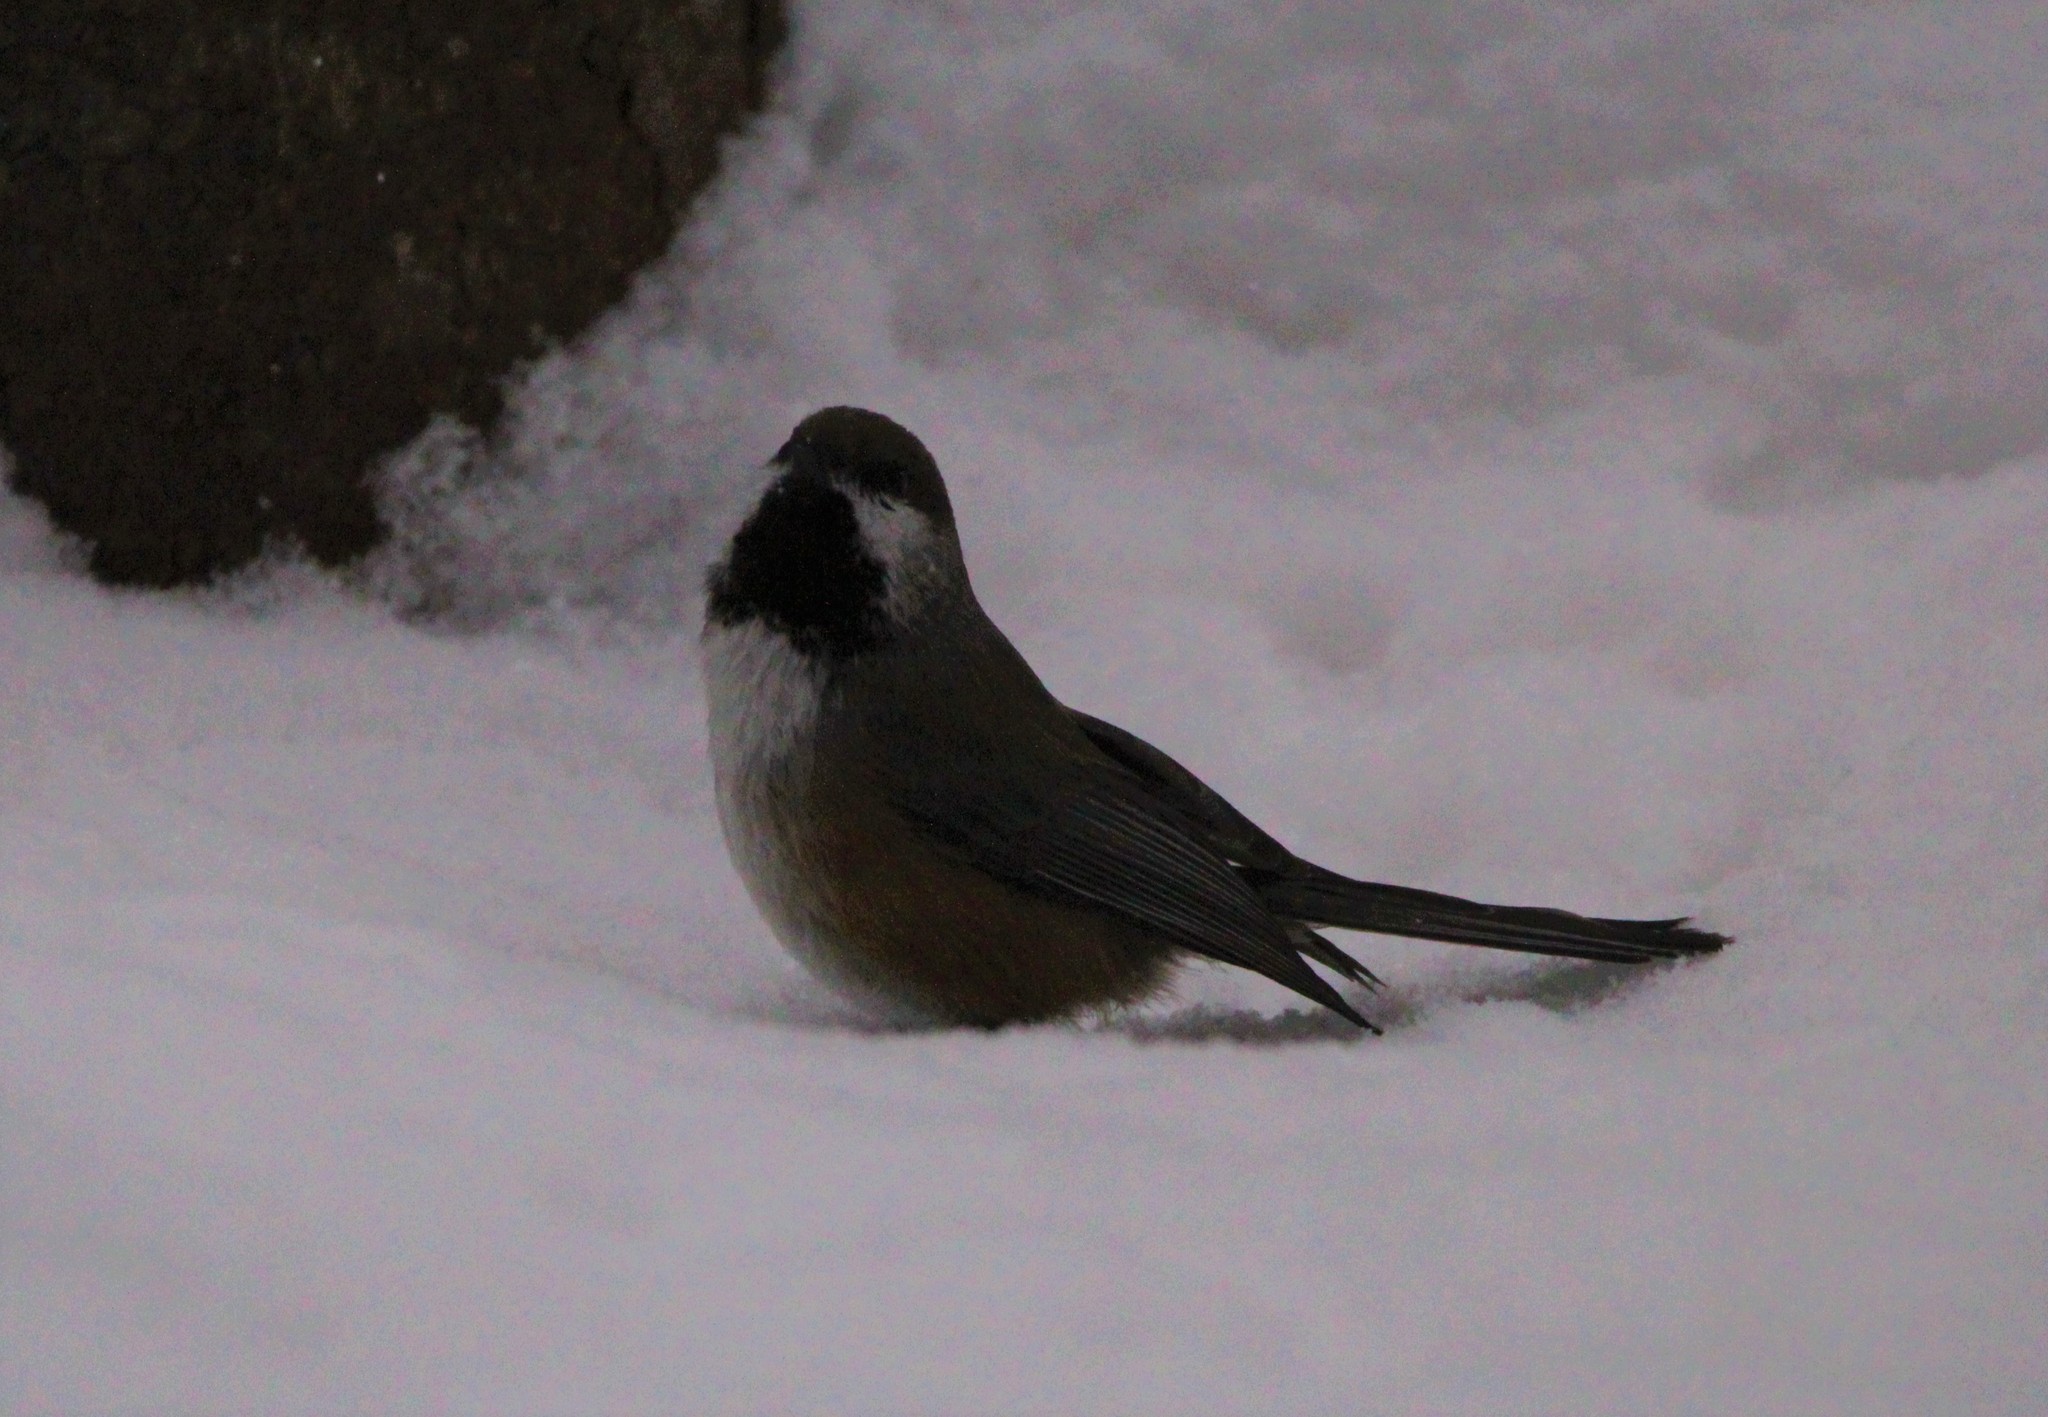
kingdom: Animalia
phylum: Chordata
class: Aves
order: Passeriformes
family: Paridae
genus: Poecile
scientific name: Poecile hudsonicus
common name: Boreal chickadee
